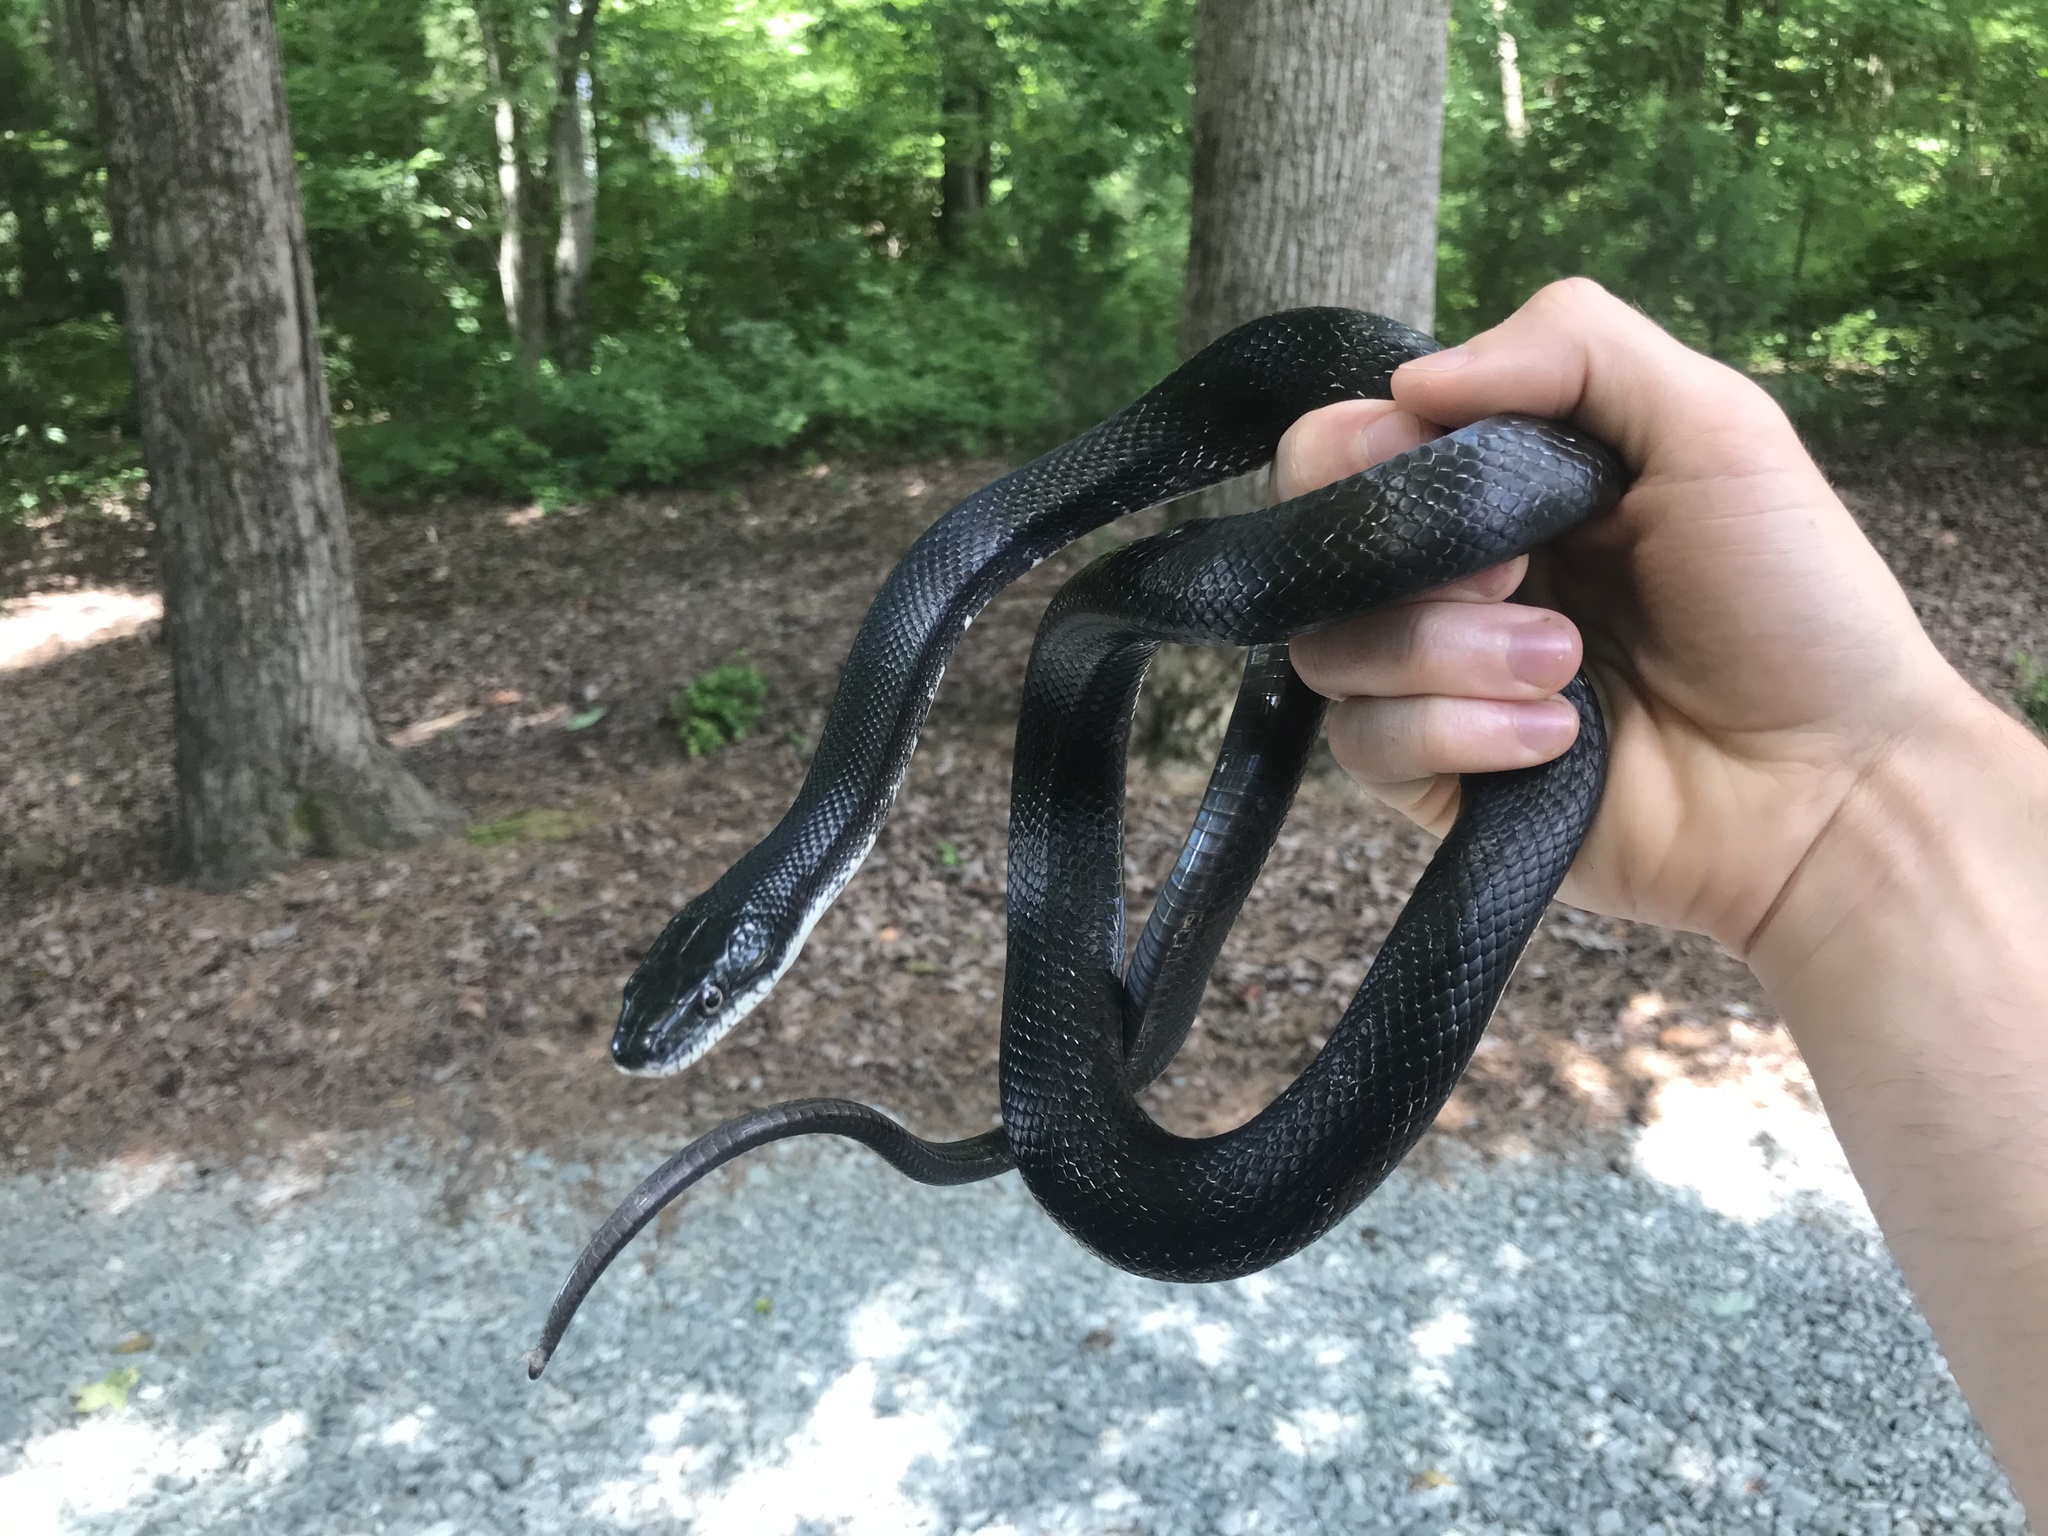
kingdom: Animalia
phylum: Chordata
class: Squamata
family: Colubridae
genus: Pantherophis
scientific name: Pantherophis alleghaniensis
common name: Eastern rat snake
